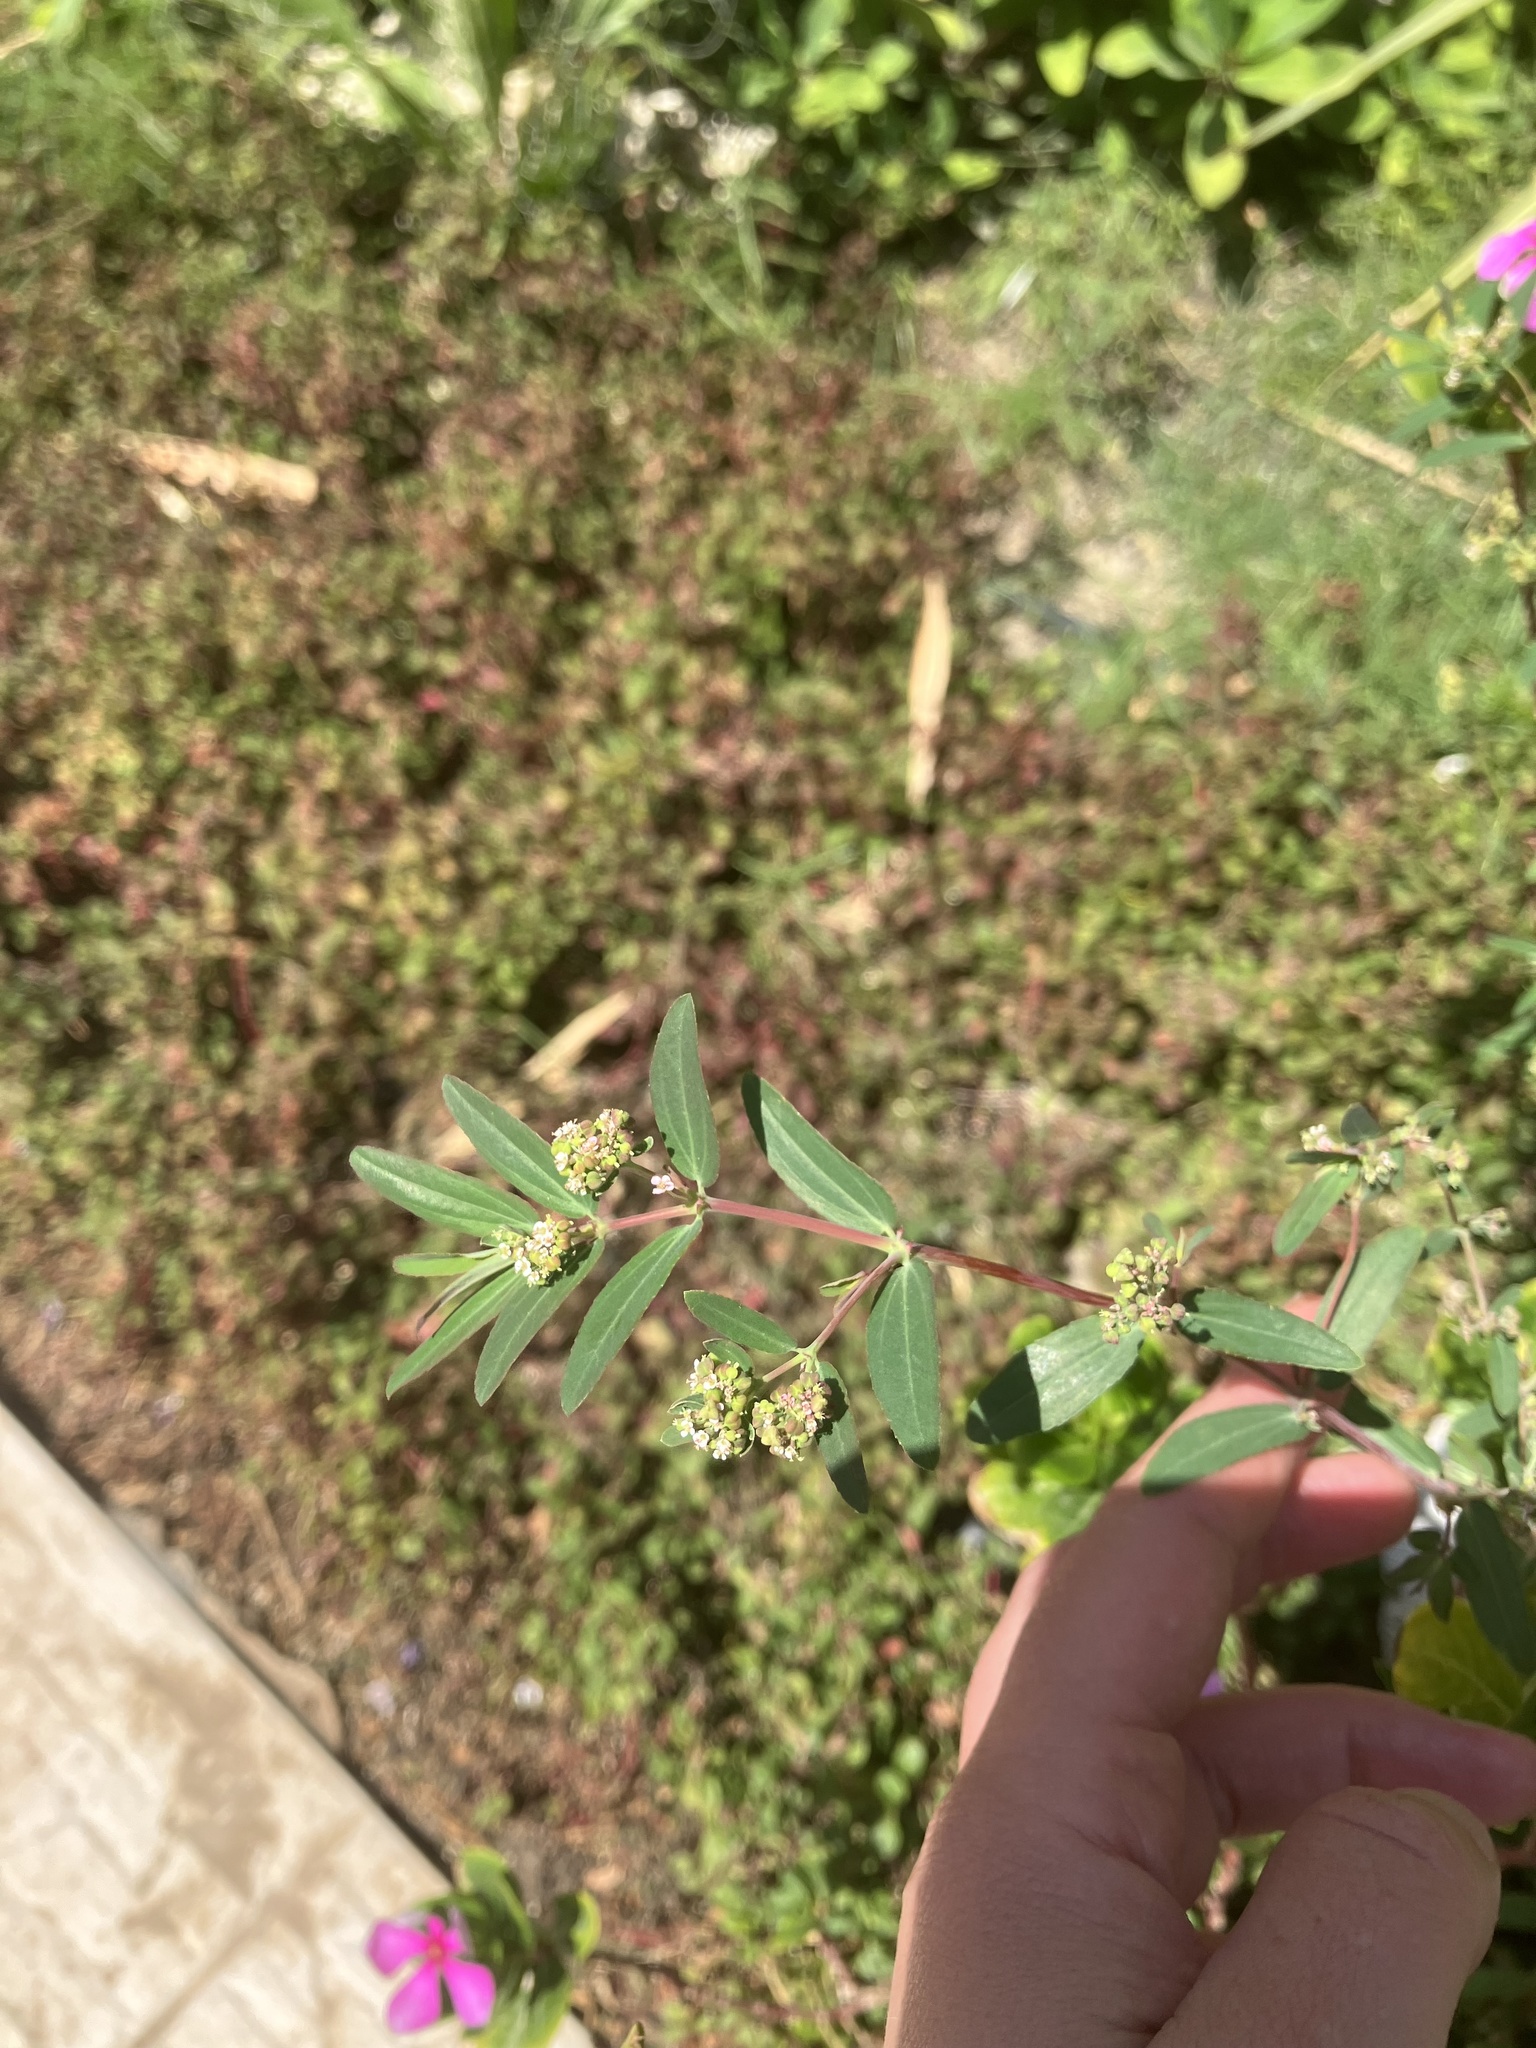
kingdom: Plantae
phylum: Tracheophyta
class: Magnoliopsida
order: Malpighiales
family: Euphorbiaceae
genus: Euphorbia
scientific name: Euphorbia hypericifolia
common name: Graceful sandmat
